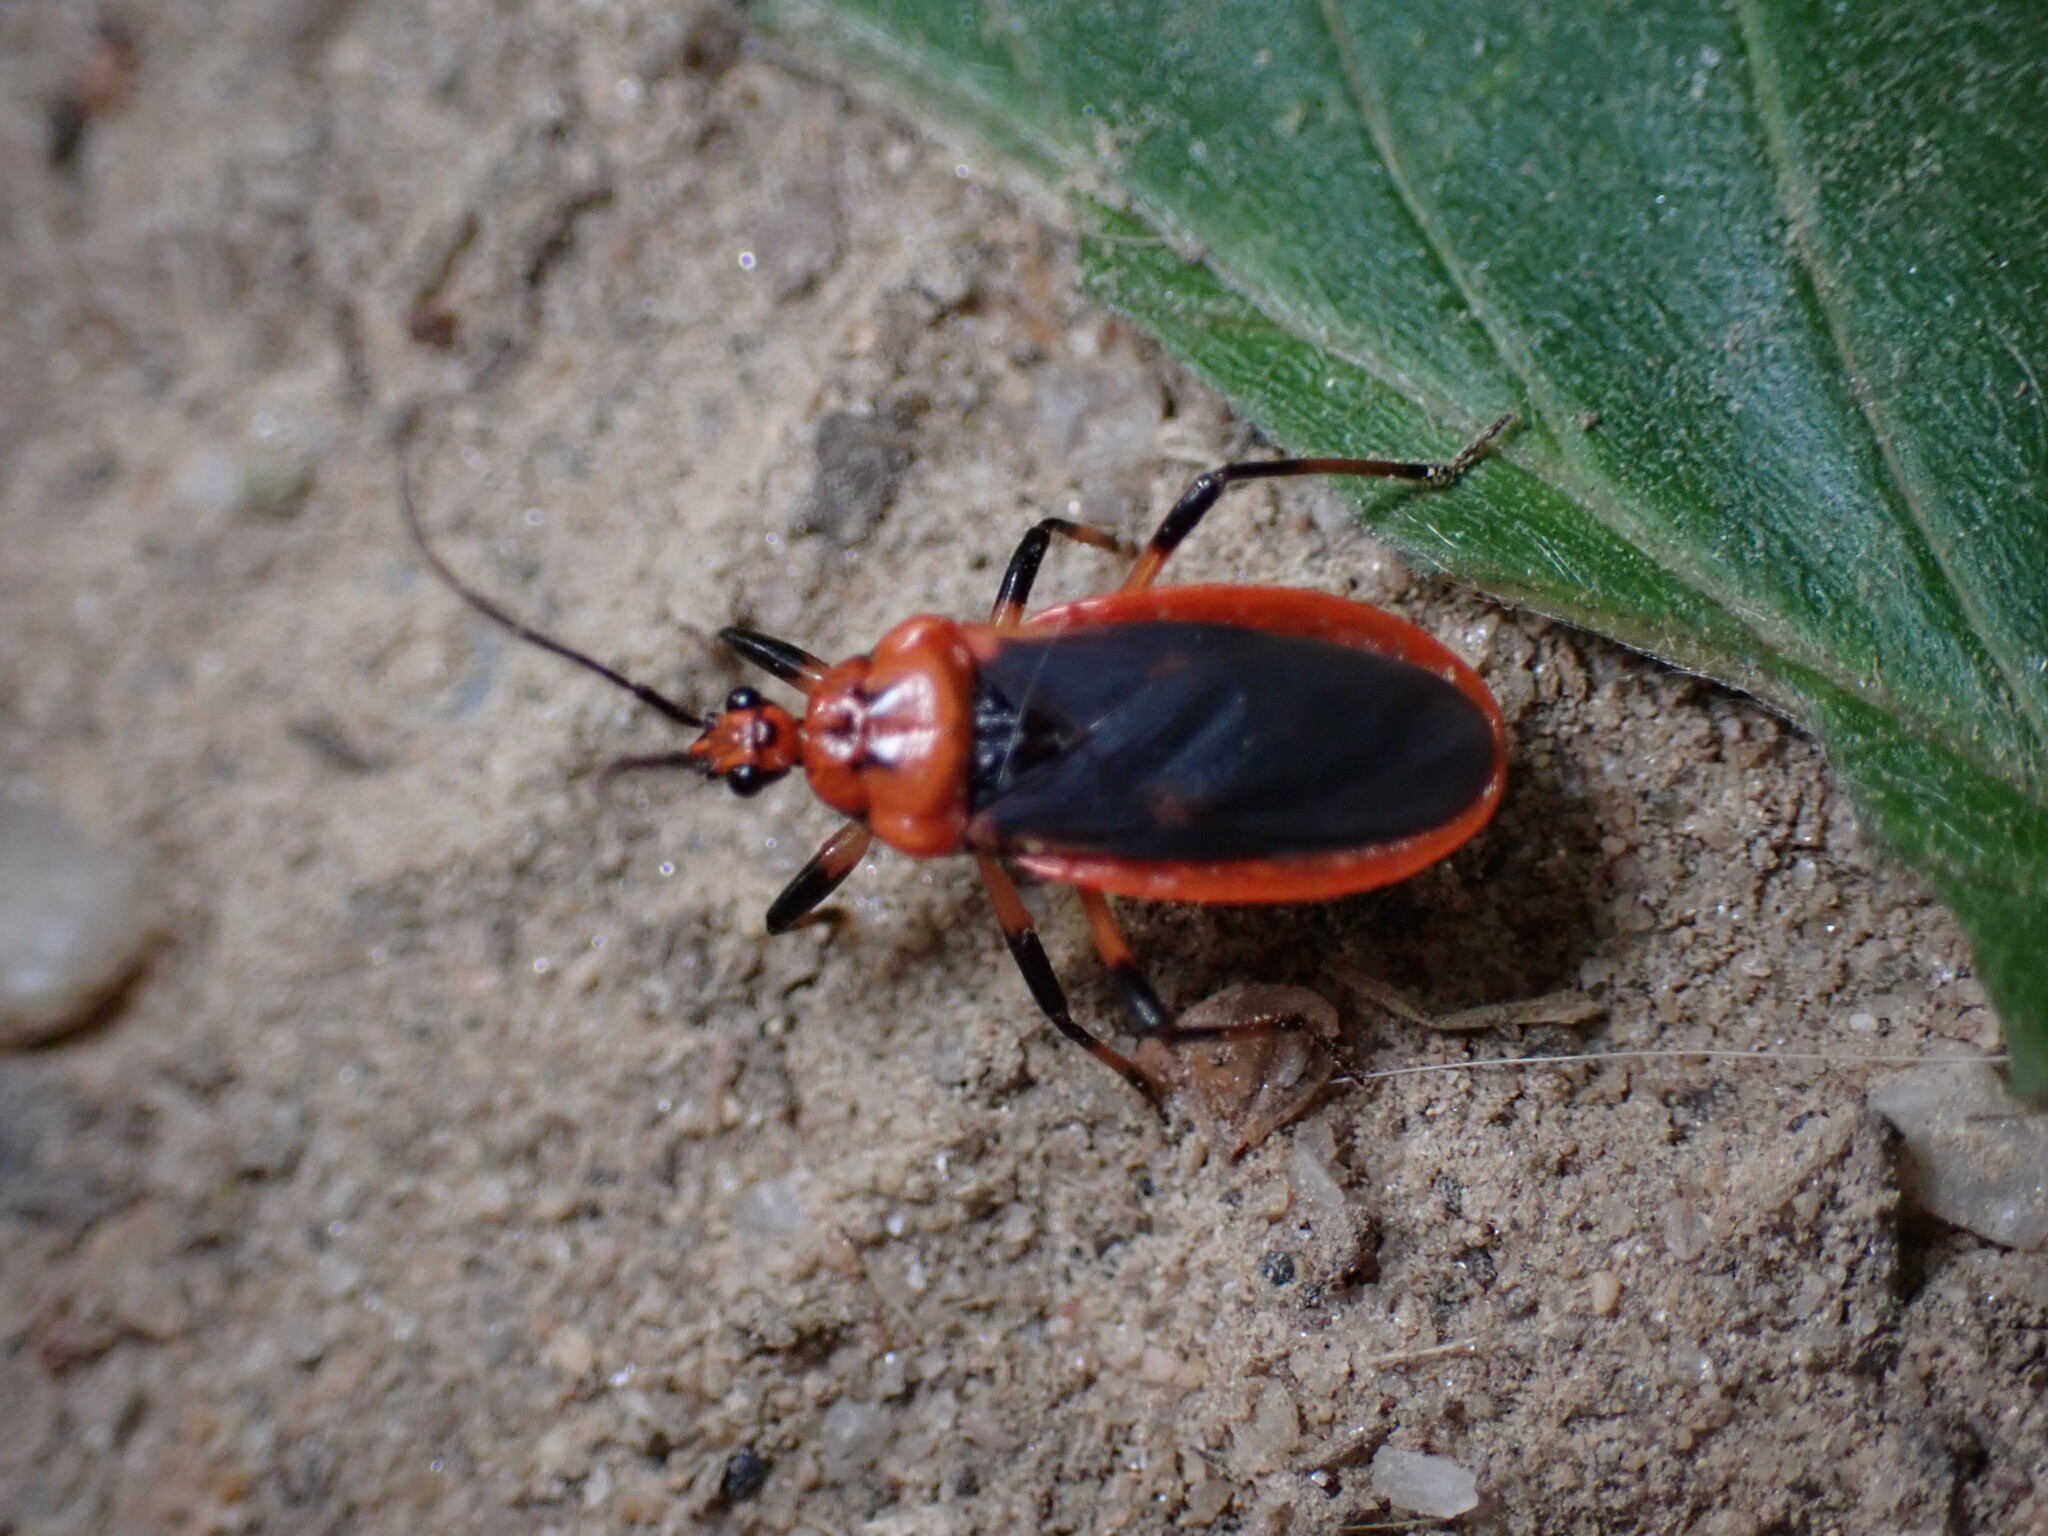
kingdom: Animalia
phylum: Arthropoda
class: Insecta
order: Hemiptera
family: Reduviidae
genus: Rhiginia
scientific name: Rhiginia cruciata
